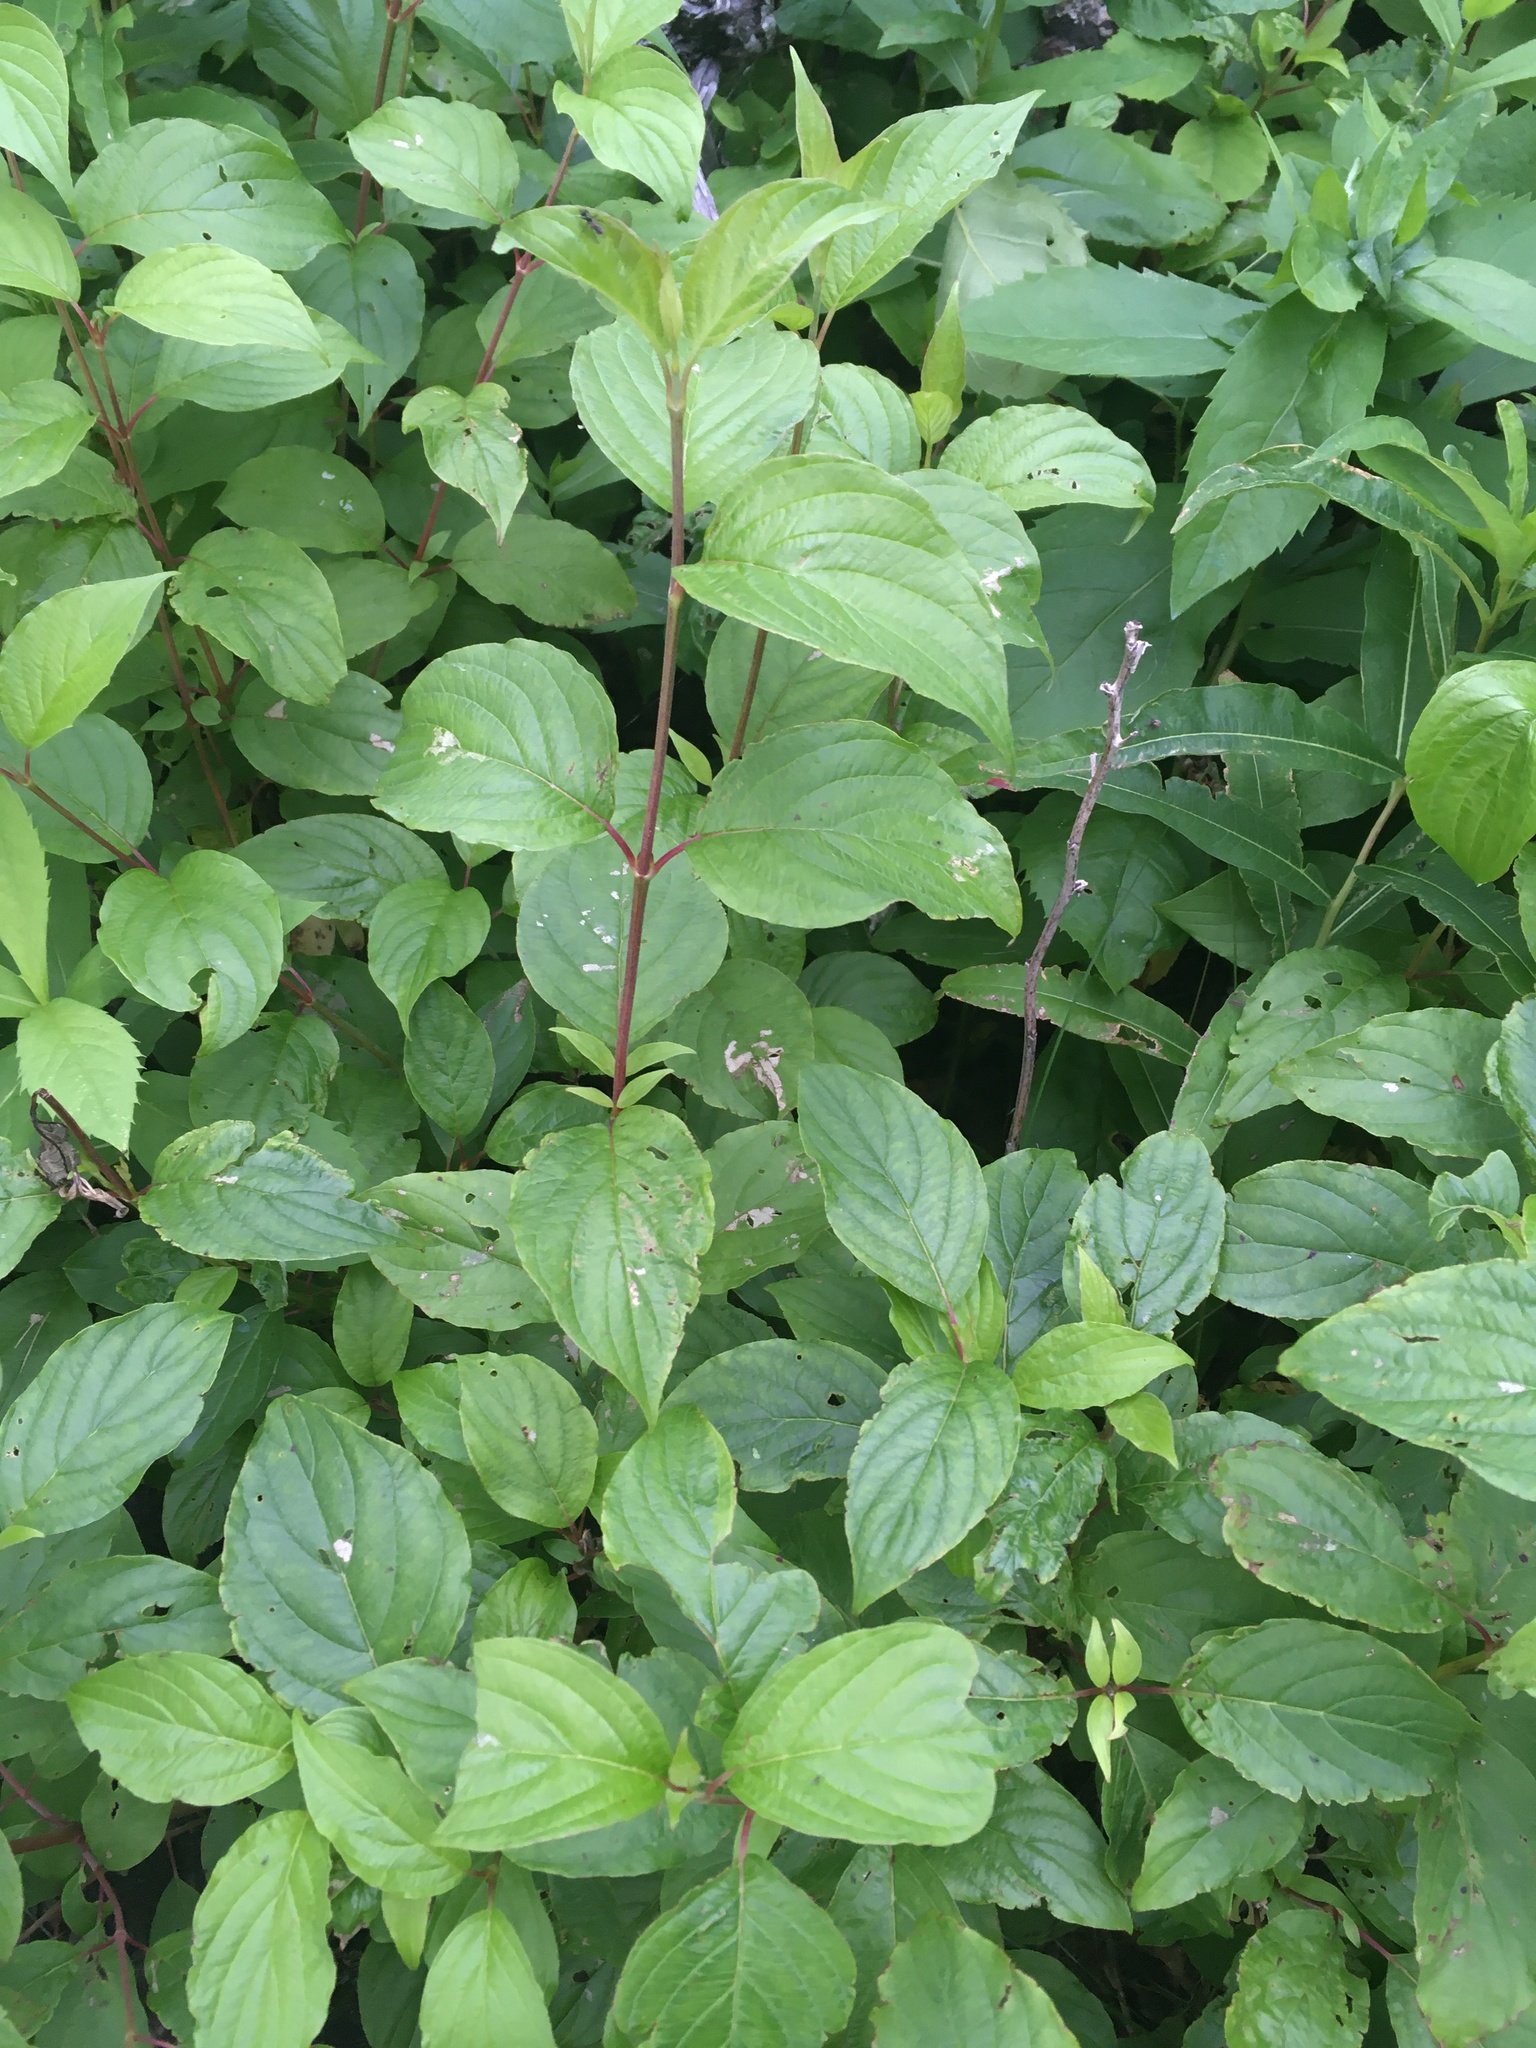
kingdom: Plantae
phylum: Tracheophyta
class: Magnoliopsida
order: Cornales
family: Cornaceae
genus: Cornus
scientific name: Cornus sericea
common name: Red-osier dogwood
